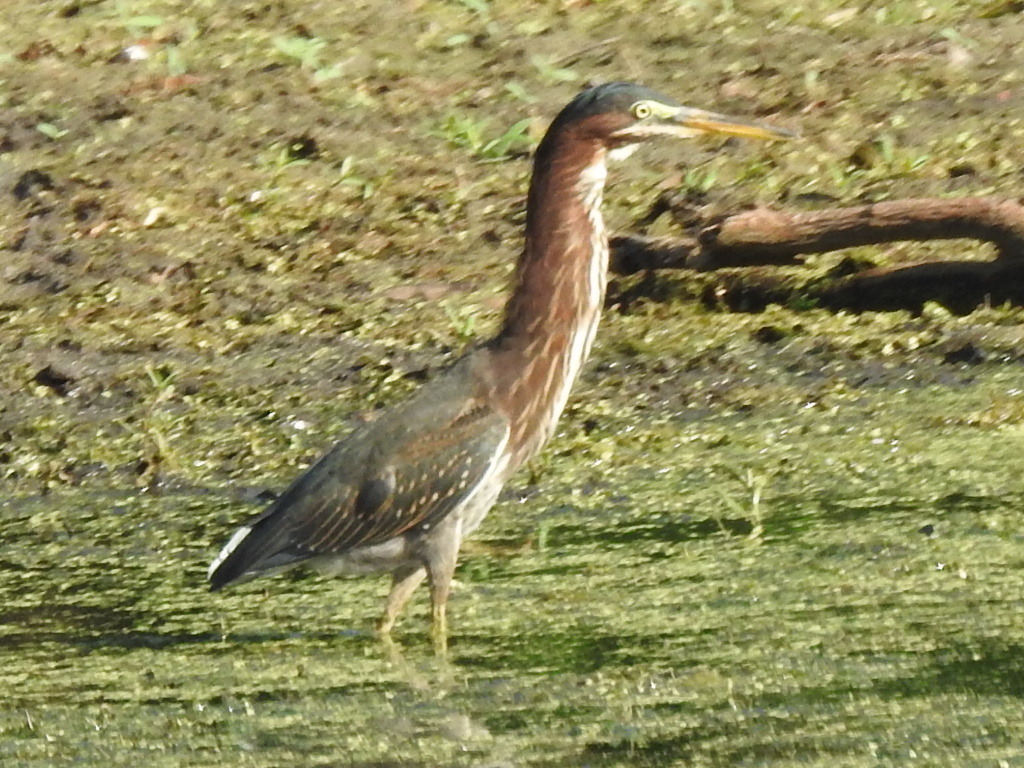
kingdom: Animalia
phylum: Chordata
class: Aves
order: Pelecaniformes
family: Ardeidae
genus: Butorides
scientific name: Butorides virescens
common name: Green heron
